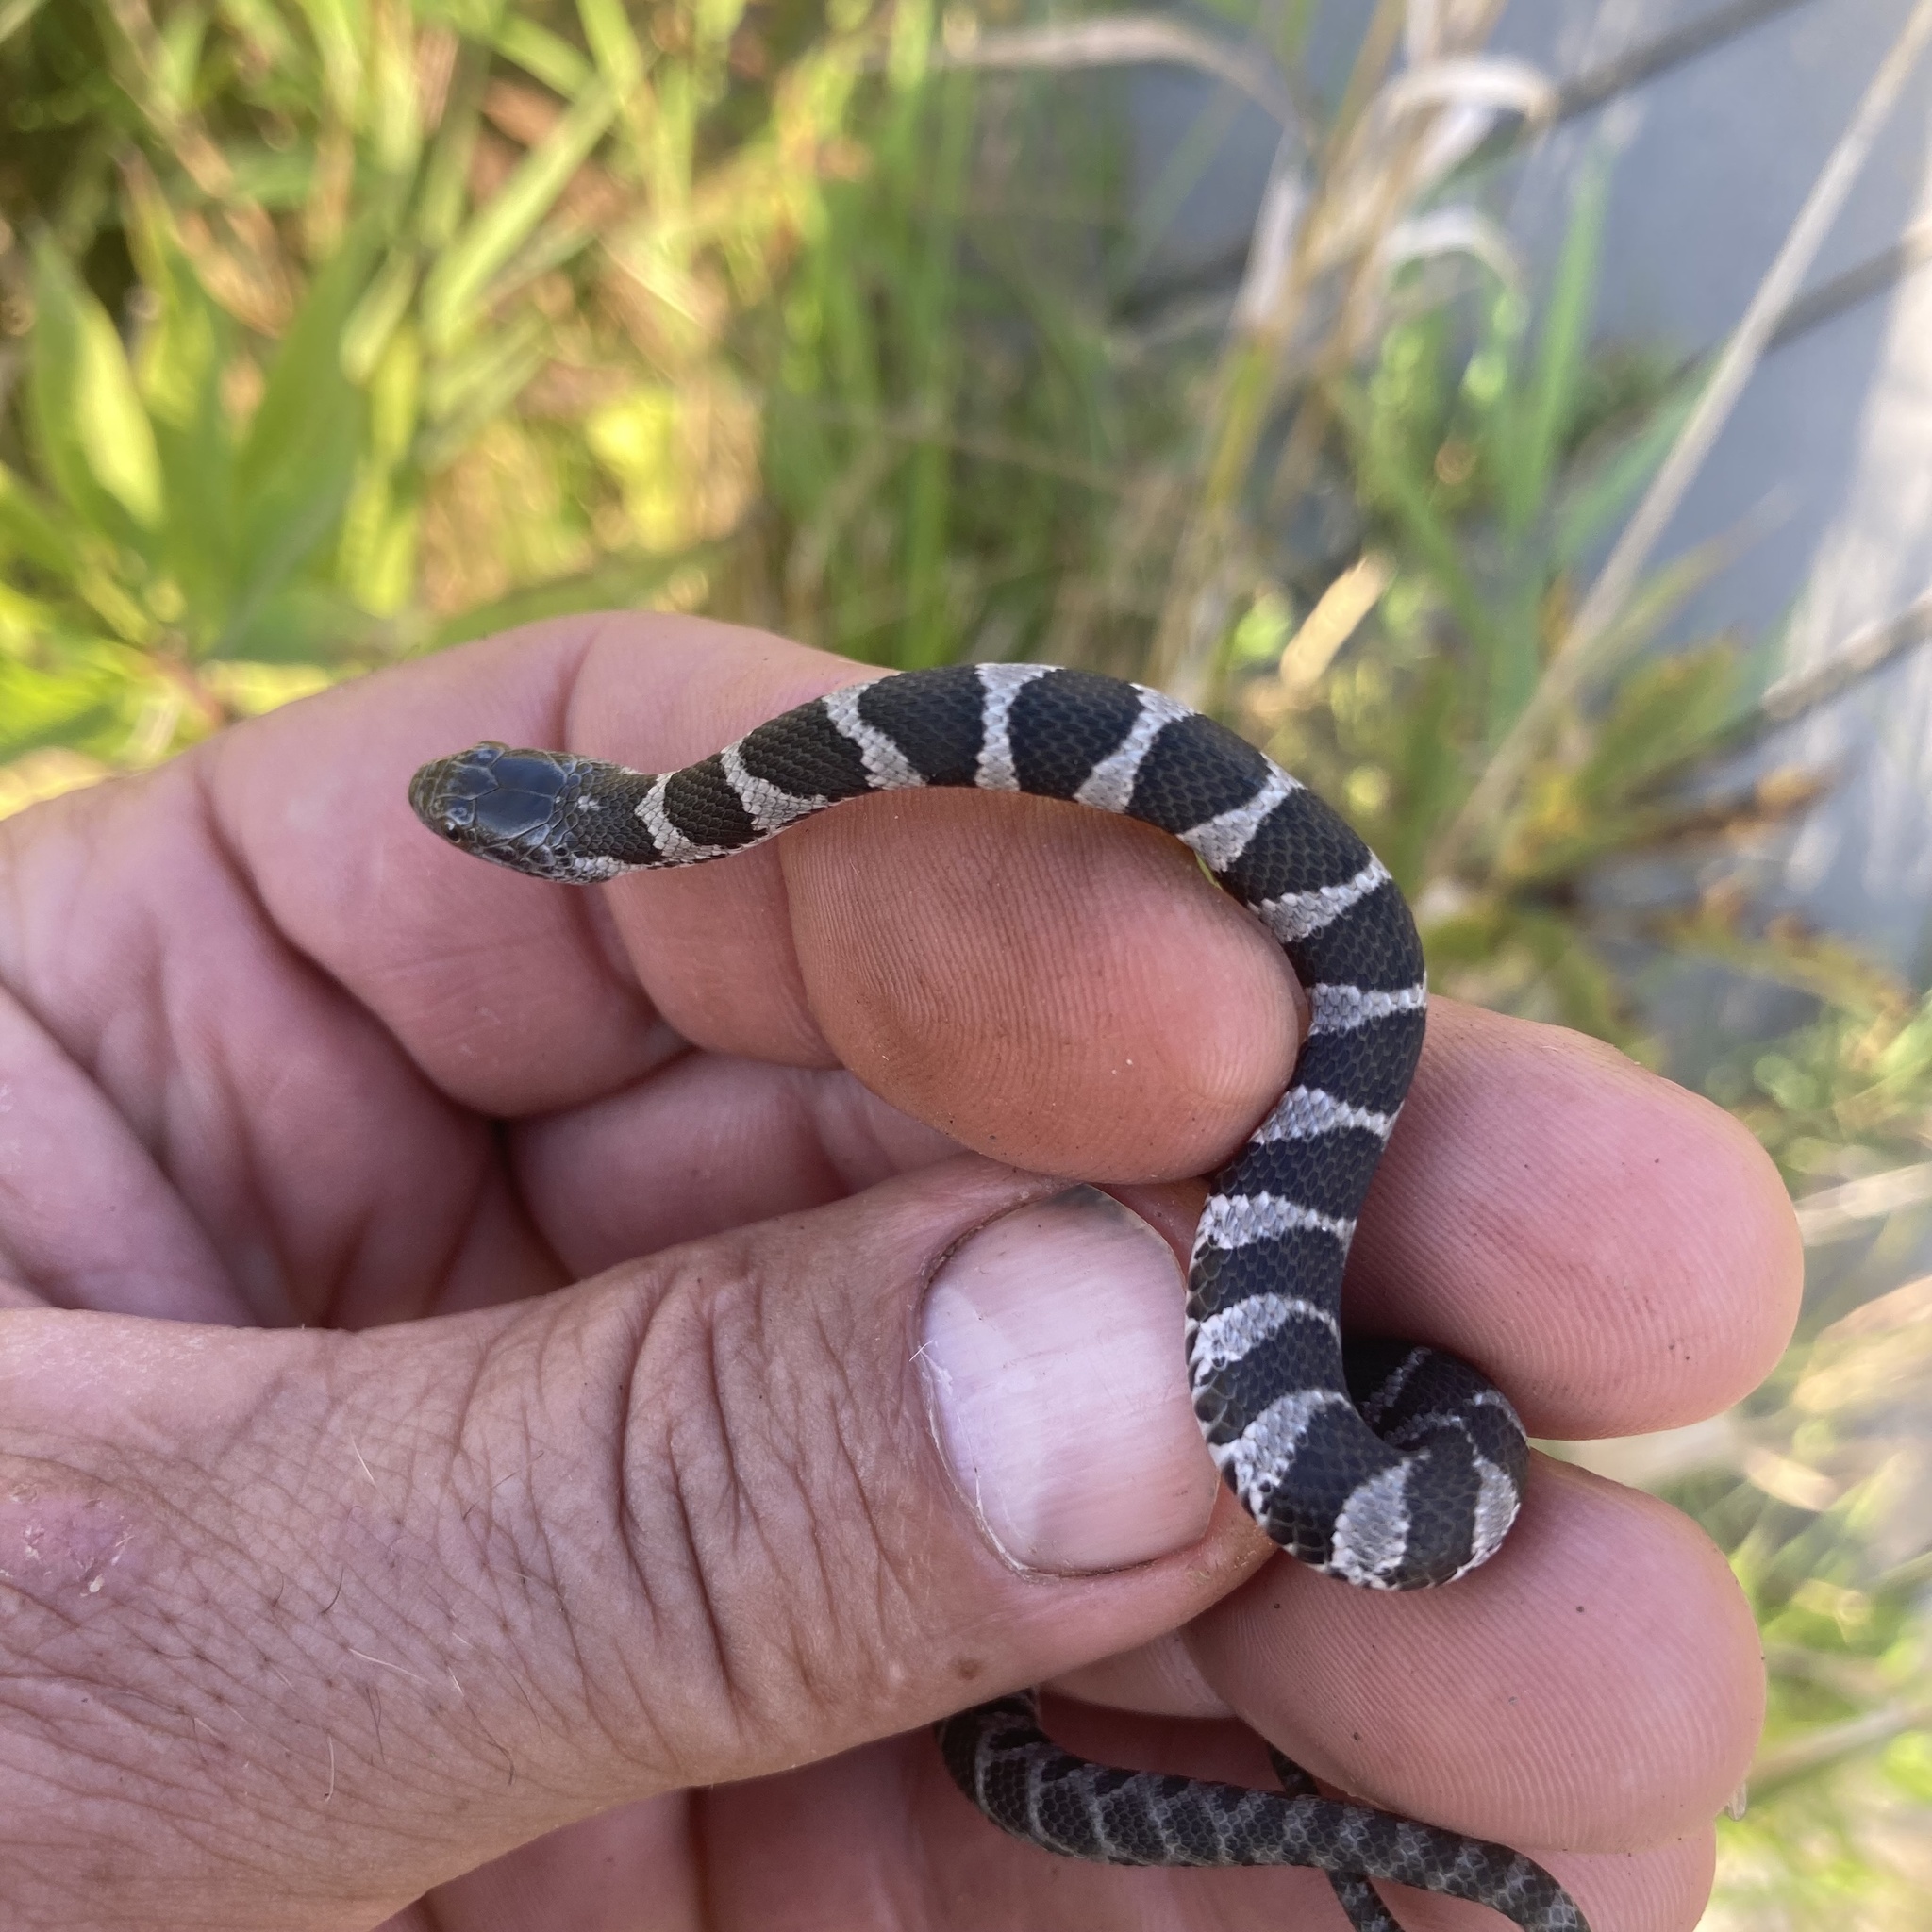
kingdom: Animalia
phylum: Chordata
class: Squamata
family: Colubridae
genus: Nerodia
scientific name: Nerodia sipedon
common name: Northern water snake
